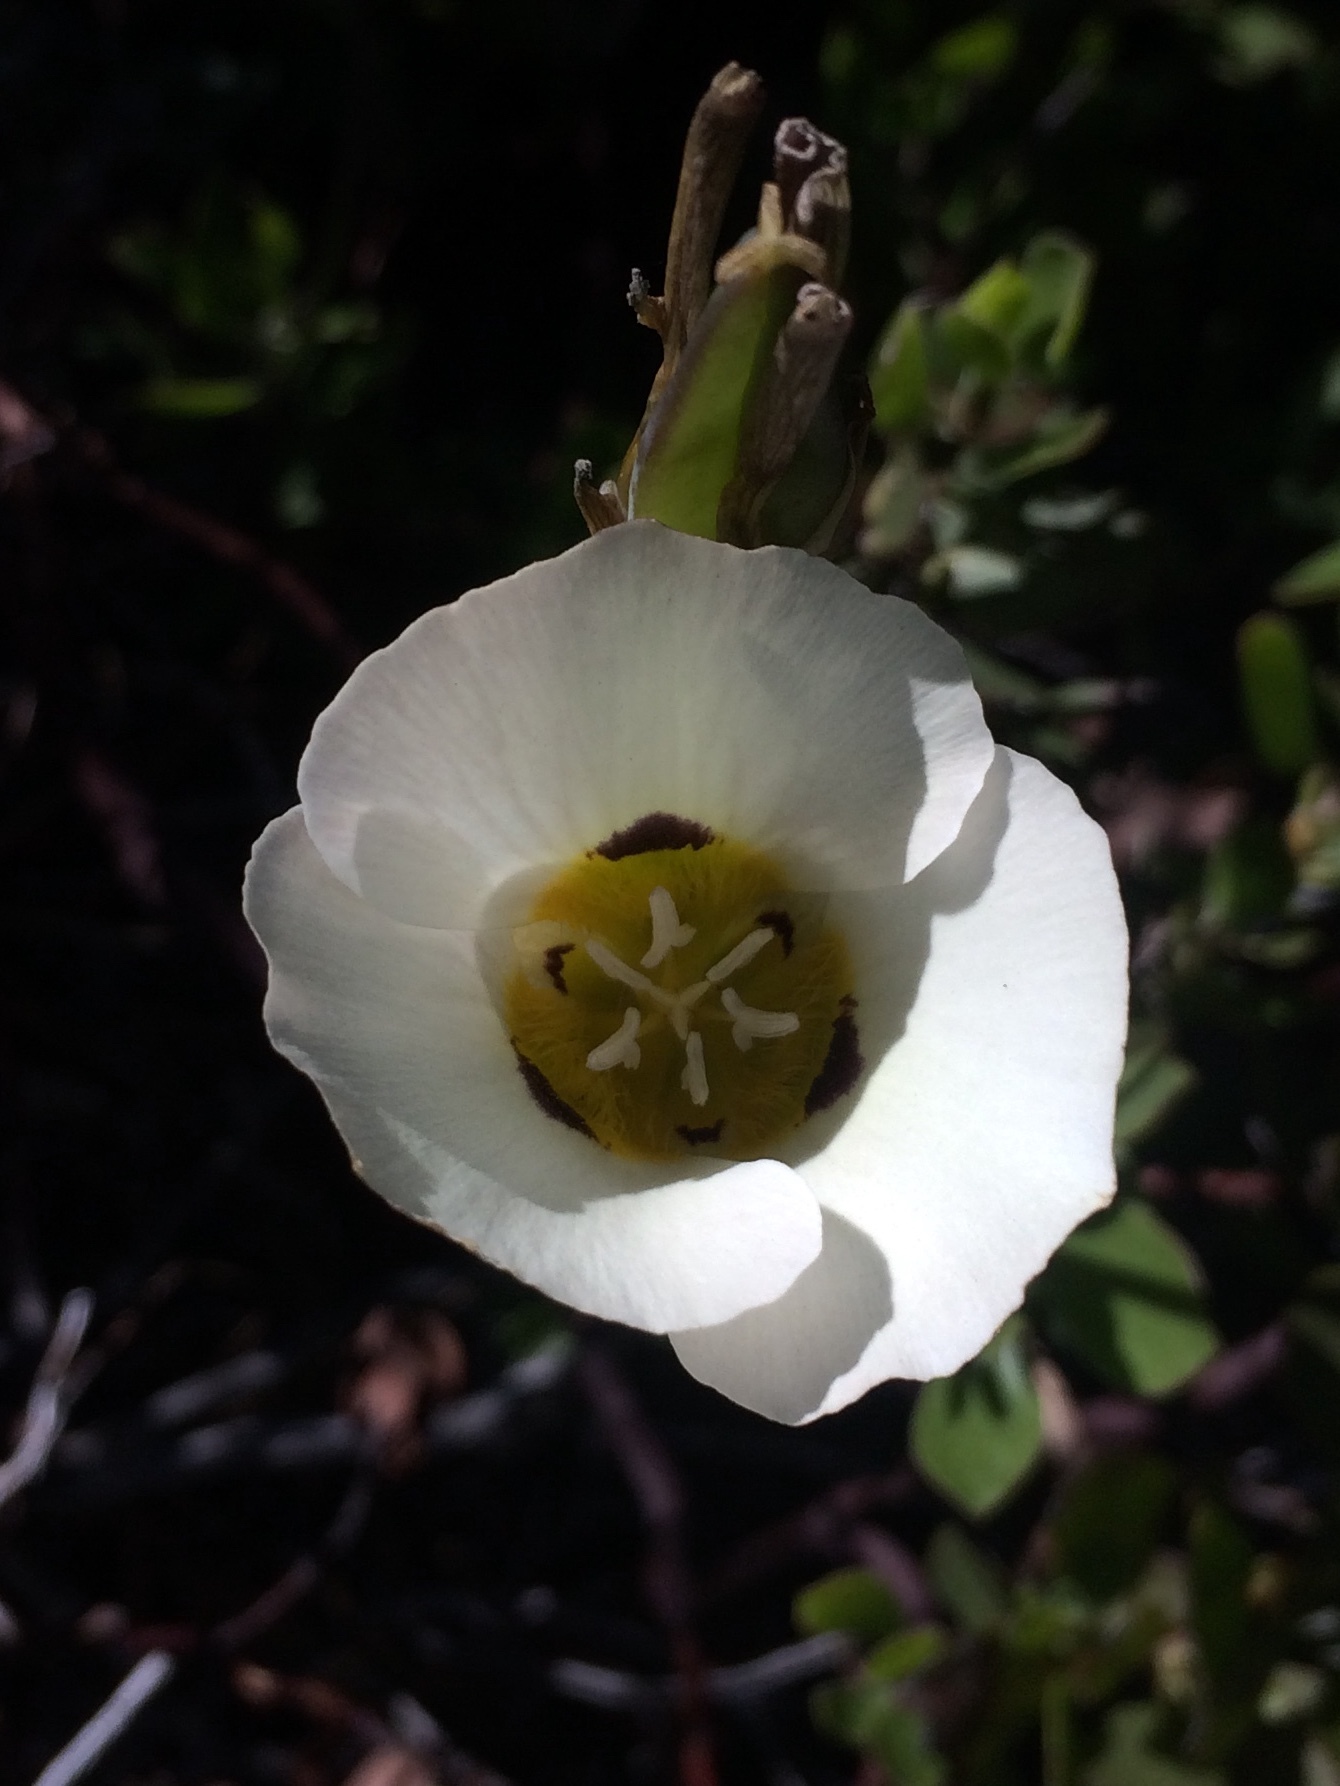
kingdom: Plantae
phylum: Tracheophyta
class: Liliopsida
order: Liliales
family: Liliaceae
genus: Calochortus
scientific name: Calochortus leichtlinii
